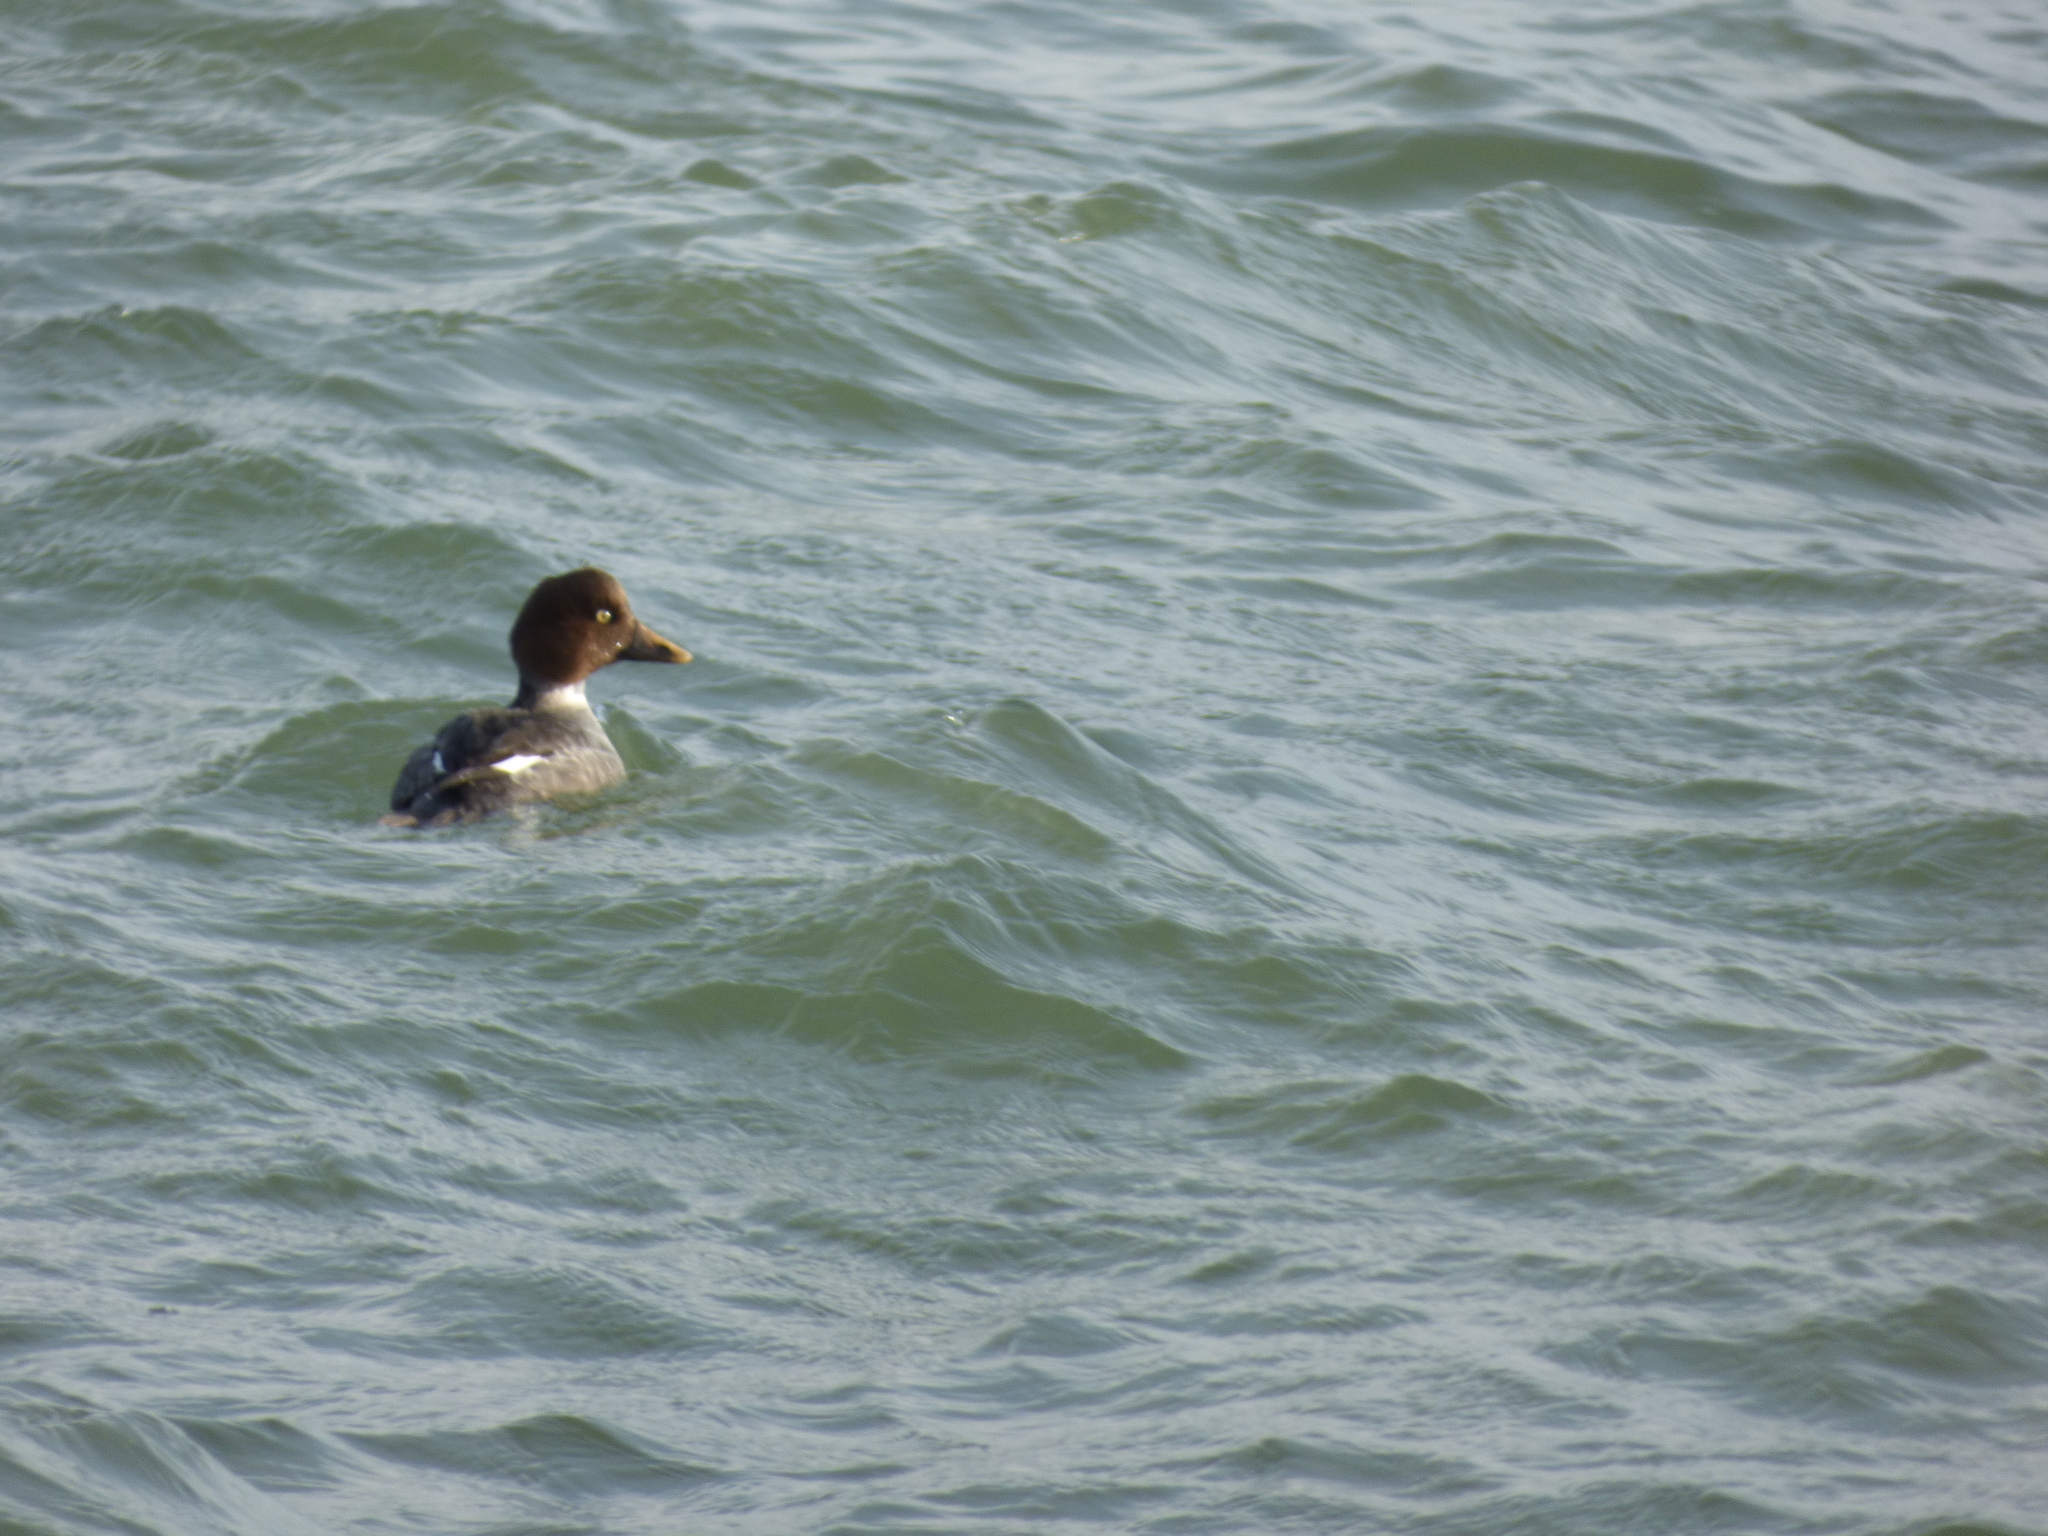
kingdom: Animalia
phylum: Chordata
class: Aves
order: Anseriformes
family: Anatidae
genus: Bucephala
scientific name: Bucephala clangula
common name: Common goldeneye
